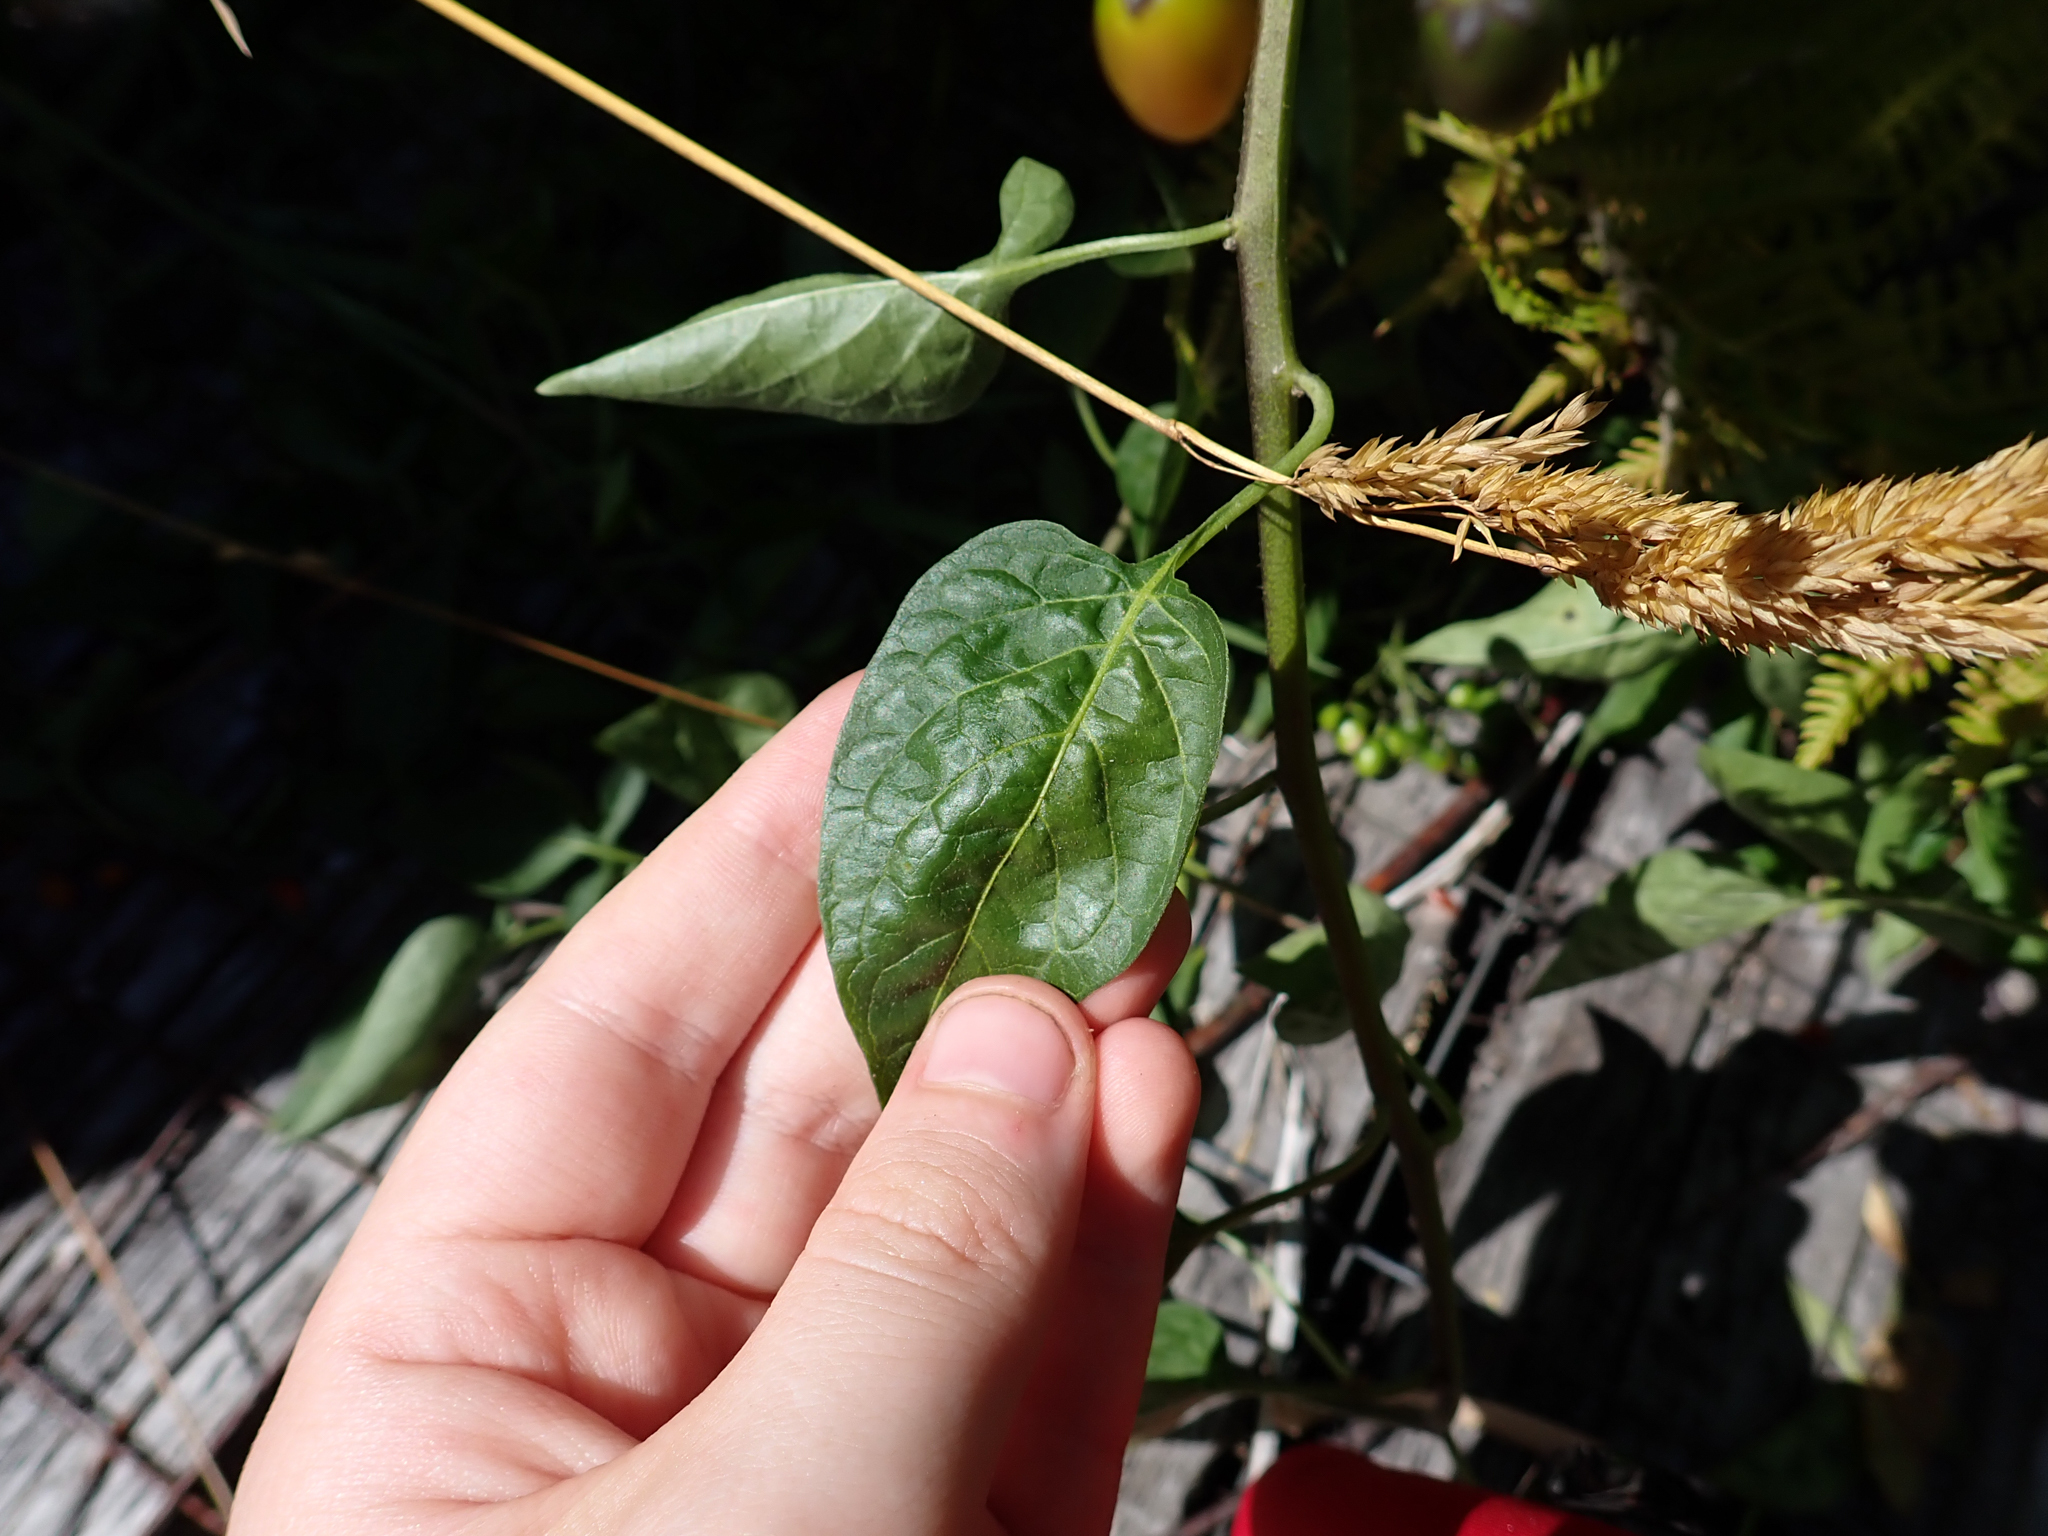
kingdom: Plantae
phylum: Tracheophyta
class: Magnoliopsida
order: Solanales
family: Solanaceae
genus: Solanum
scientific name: Solanum dulcamara
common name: Climbing nightshade
